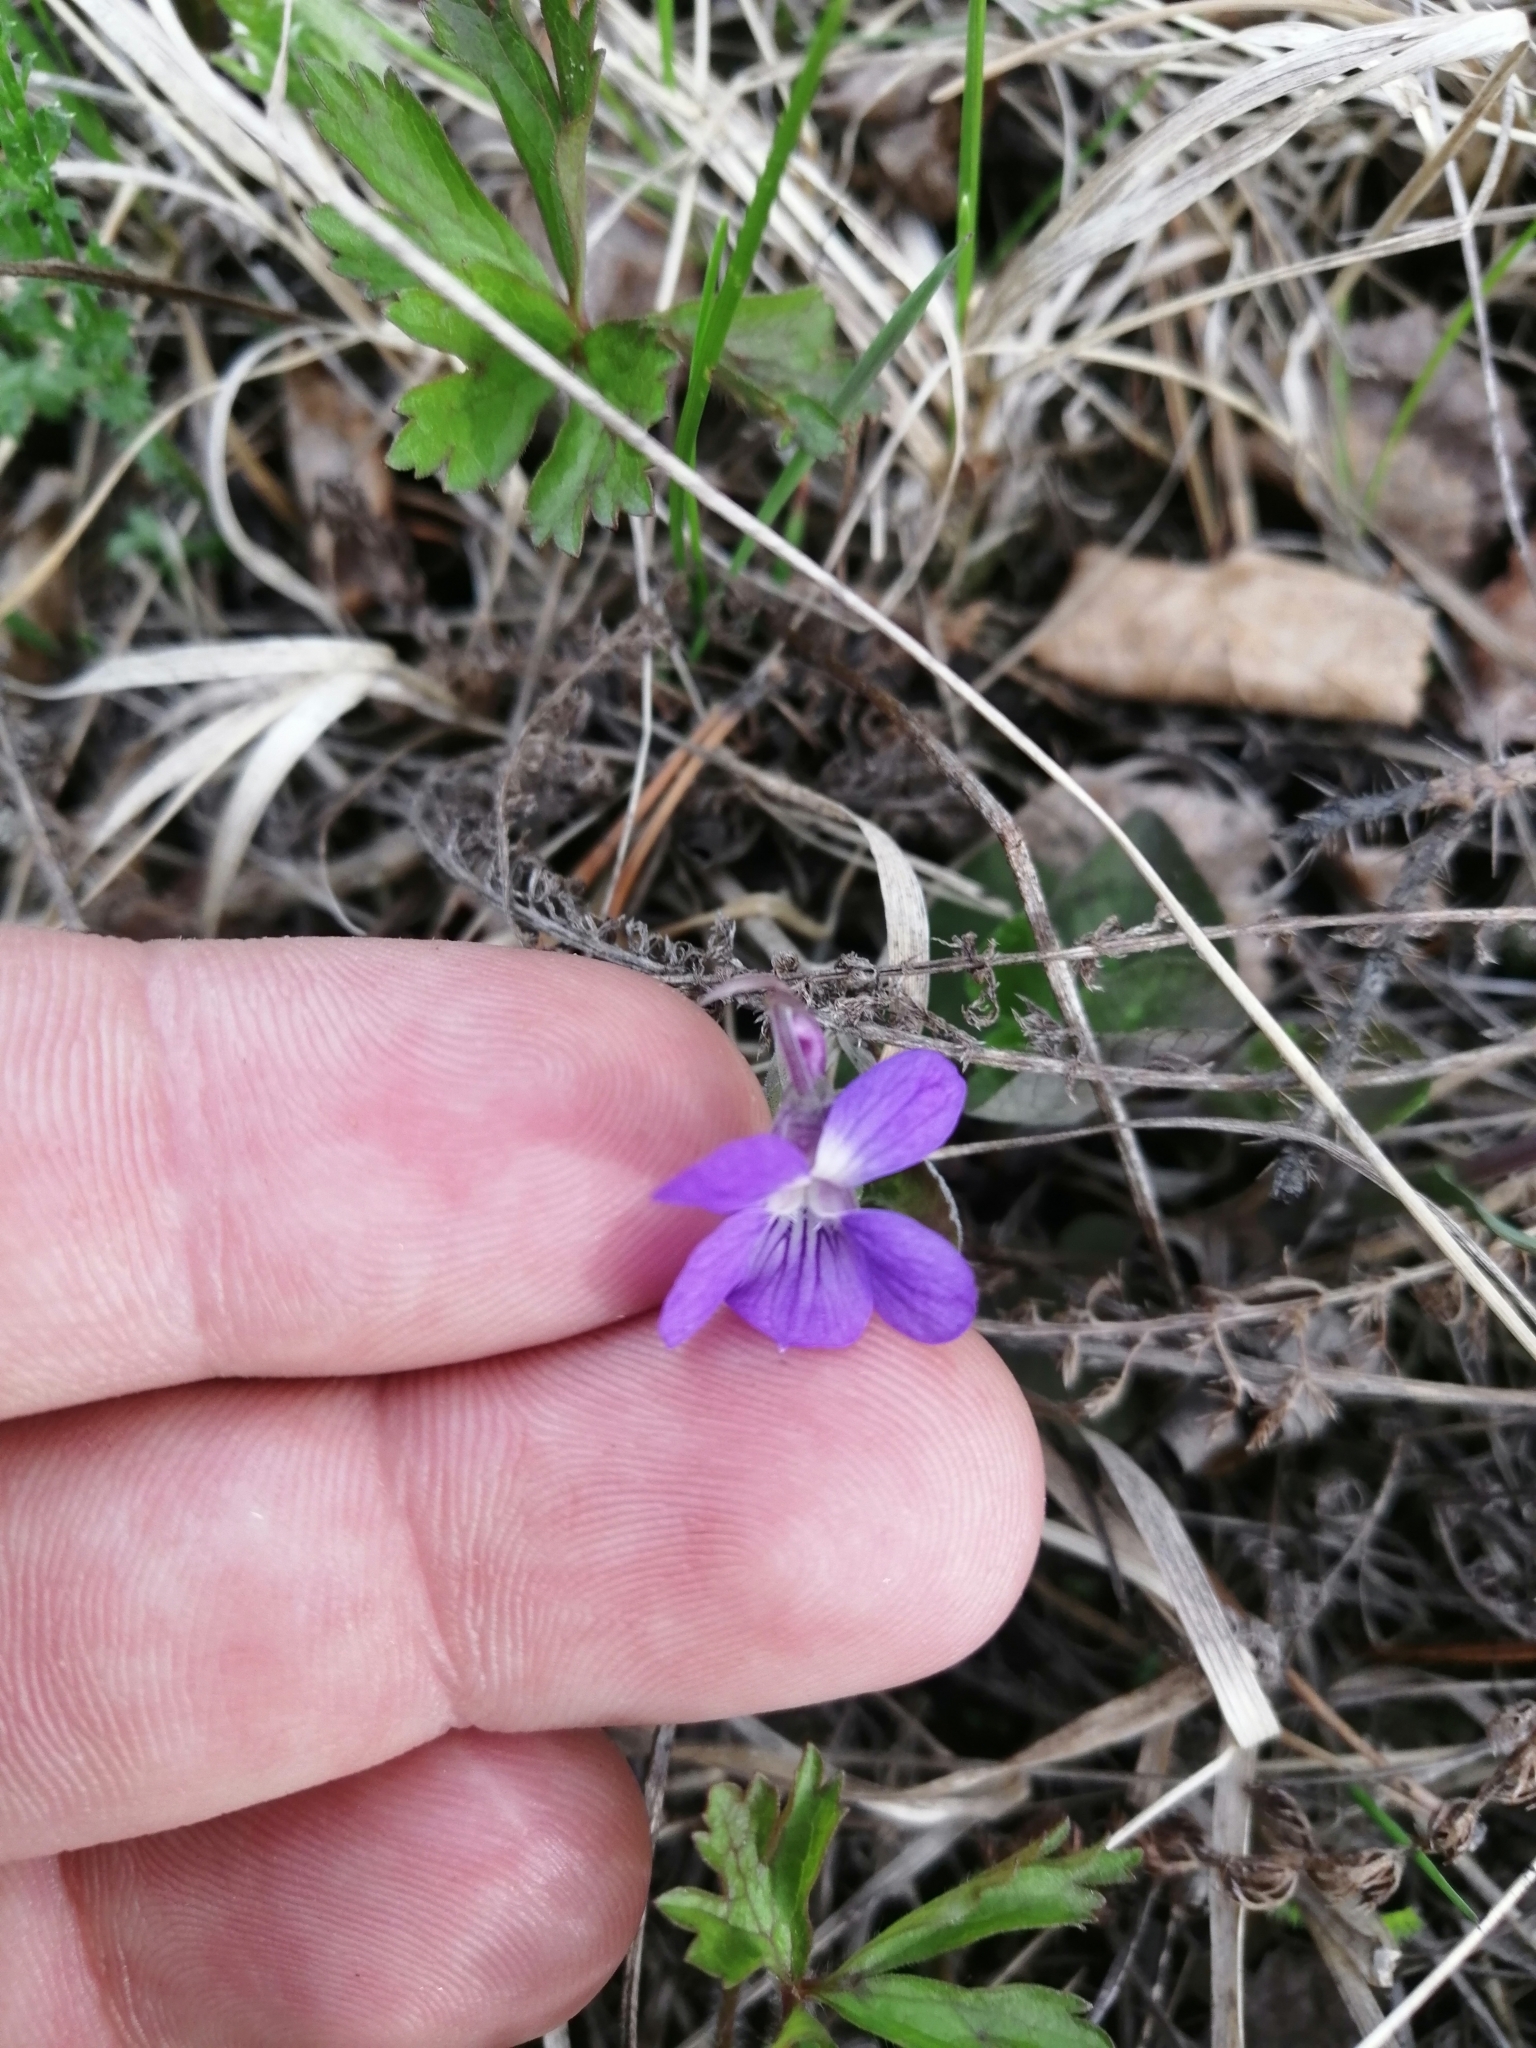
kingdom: Plantae
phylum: Tracheophyta
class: Magnoliopsida
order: Malpighiales
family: Violaceae
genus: Viola
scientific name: Viola rupestris
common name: Teesdale violet
